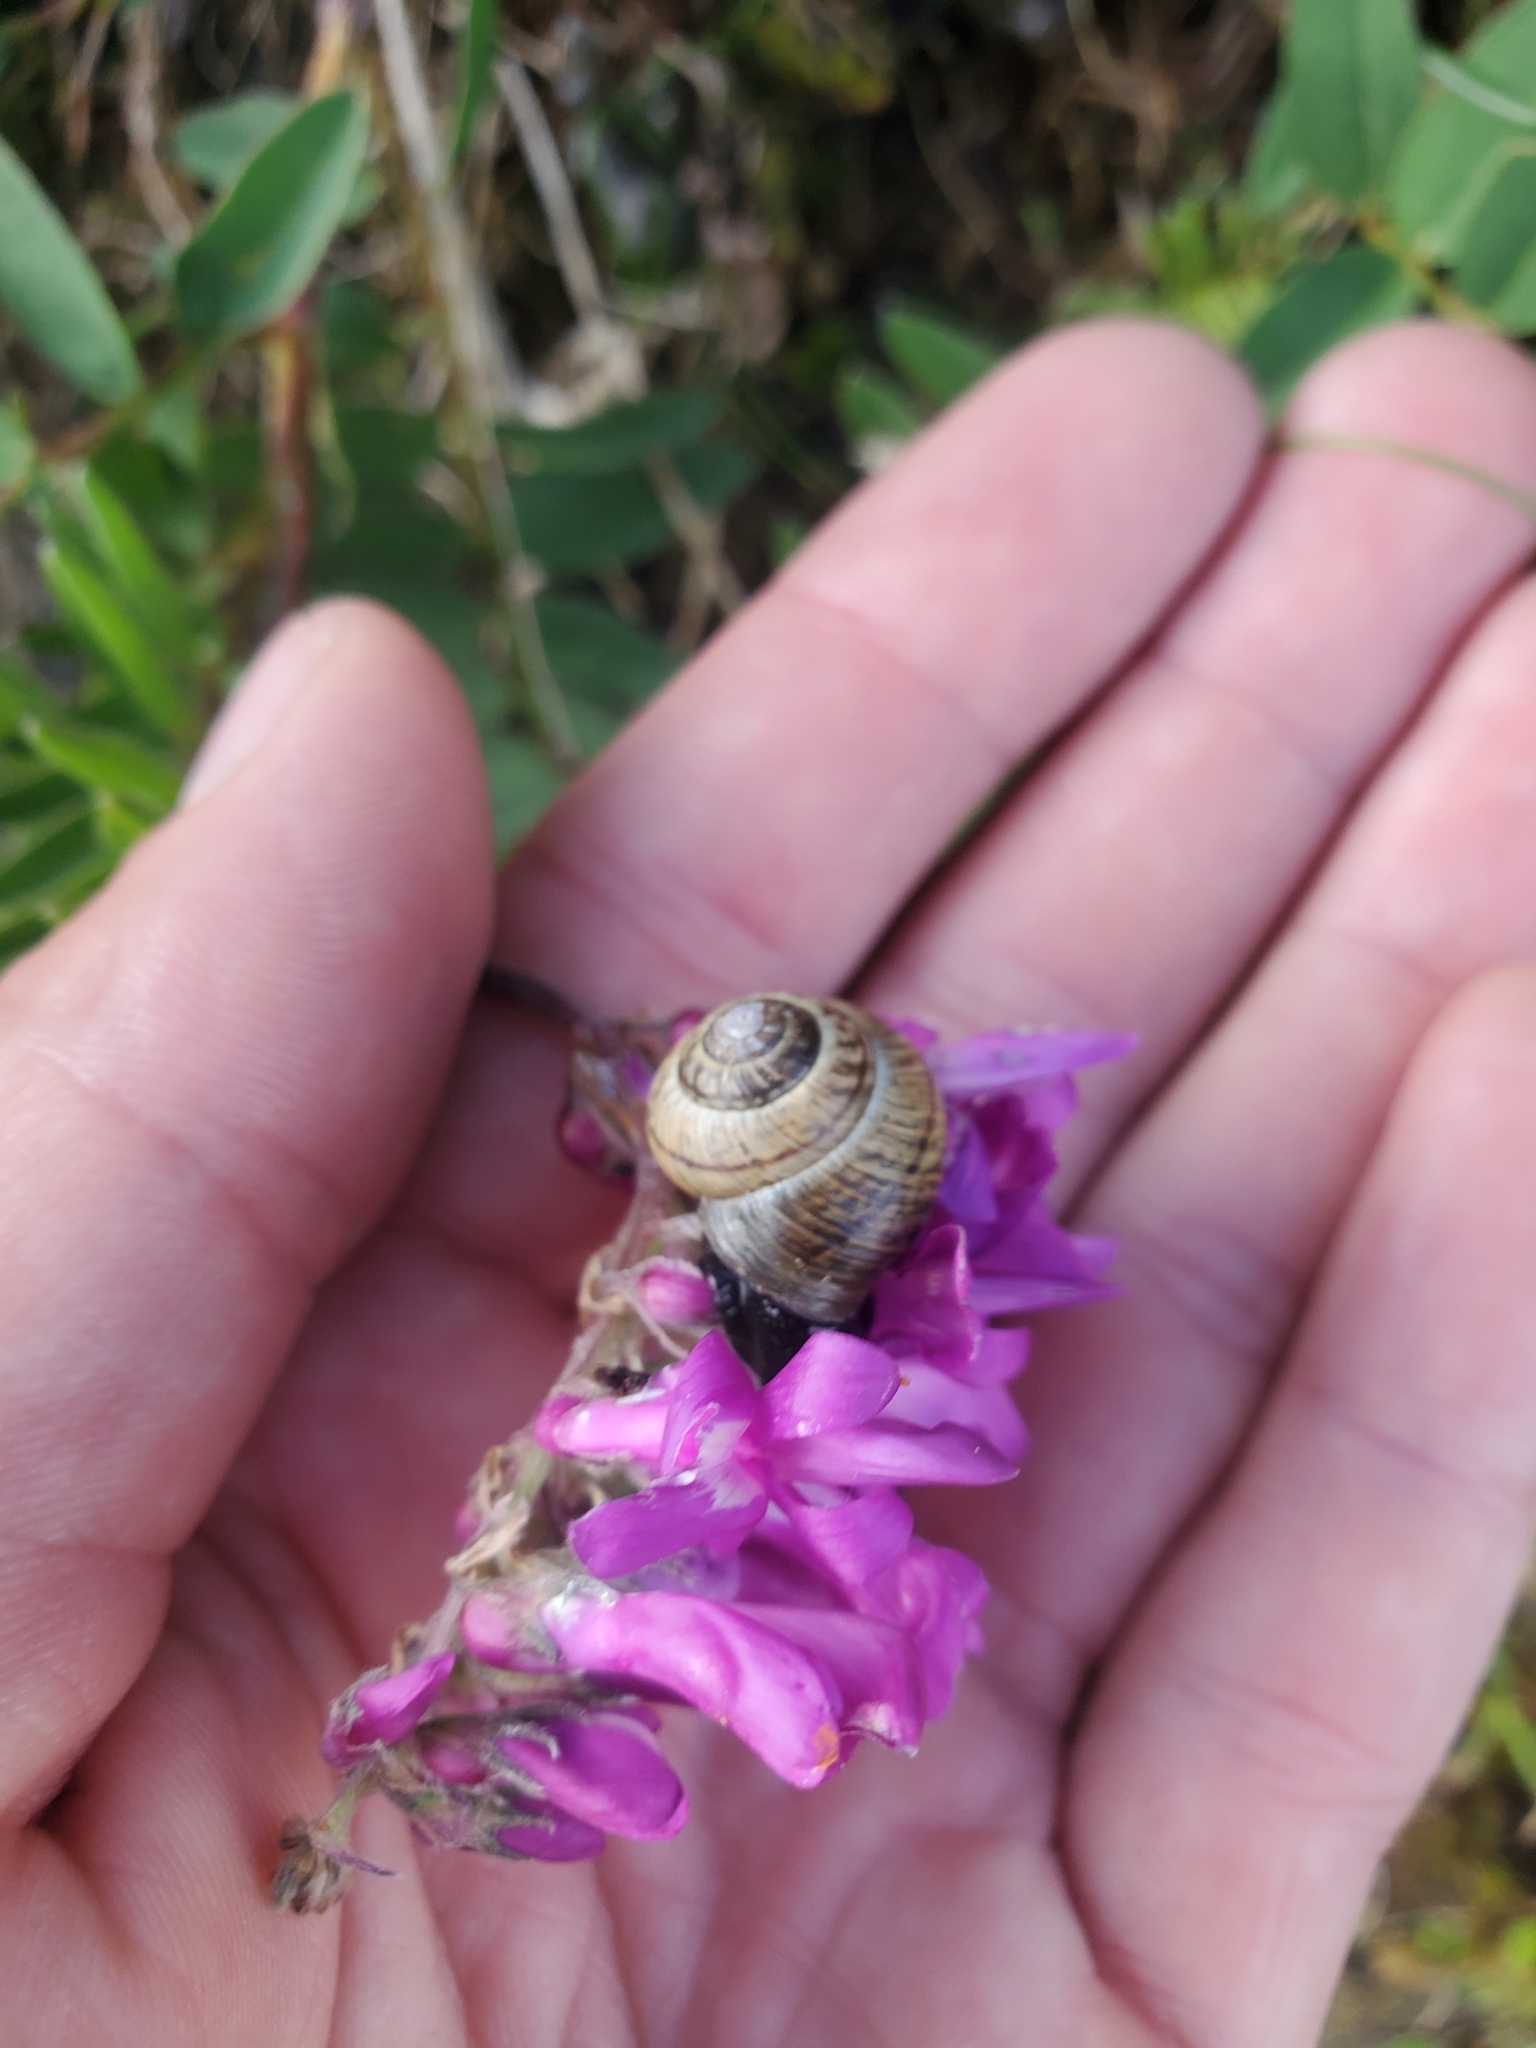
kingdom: Animalia
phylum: Mollusca
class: Gastropoda
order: Stylommatophora
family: Helicidae
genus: Arianta
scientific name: Arianta arbustorum
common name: Copse snail
